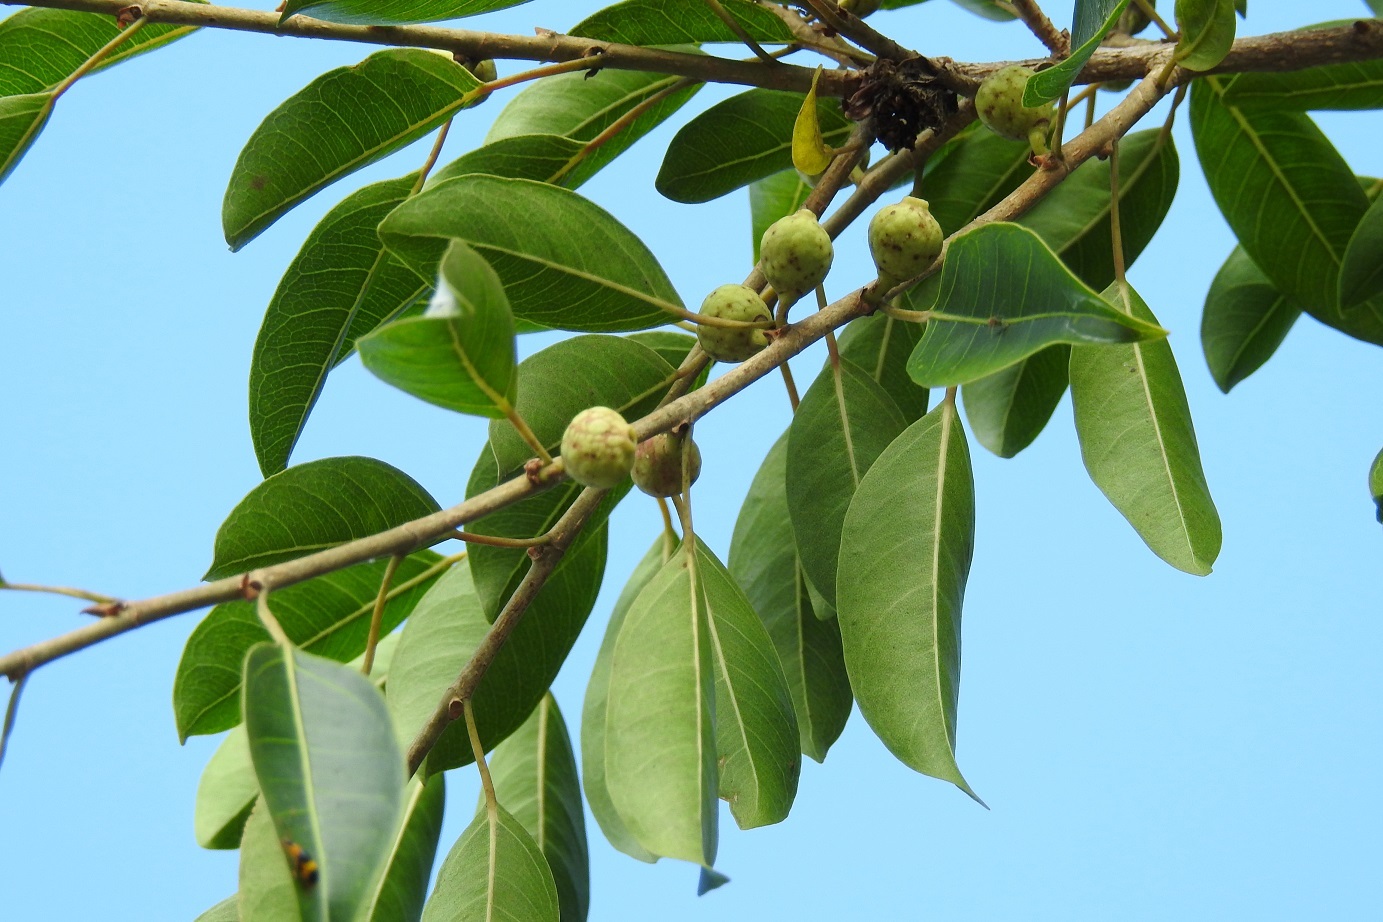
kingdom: Plantae
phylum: Tracheophyta
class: Magnoliopsida
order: Rosales
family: Moraceae
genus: Ficus
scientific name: Ficus pertusa
